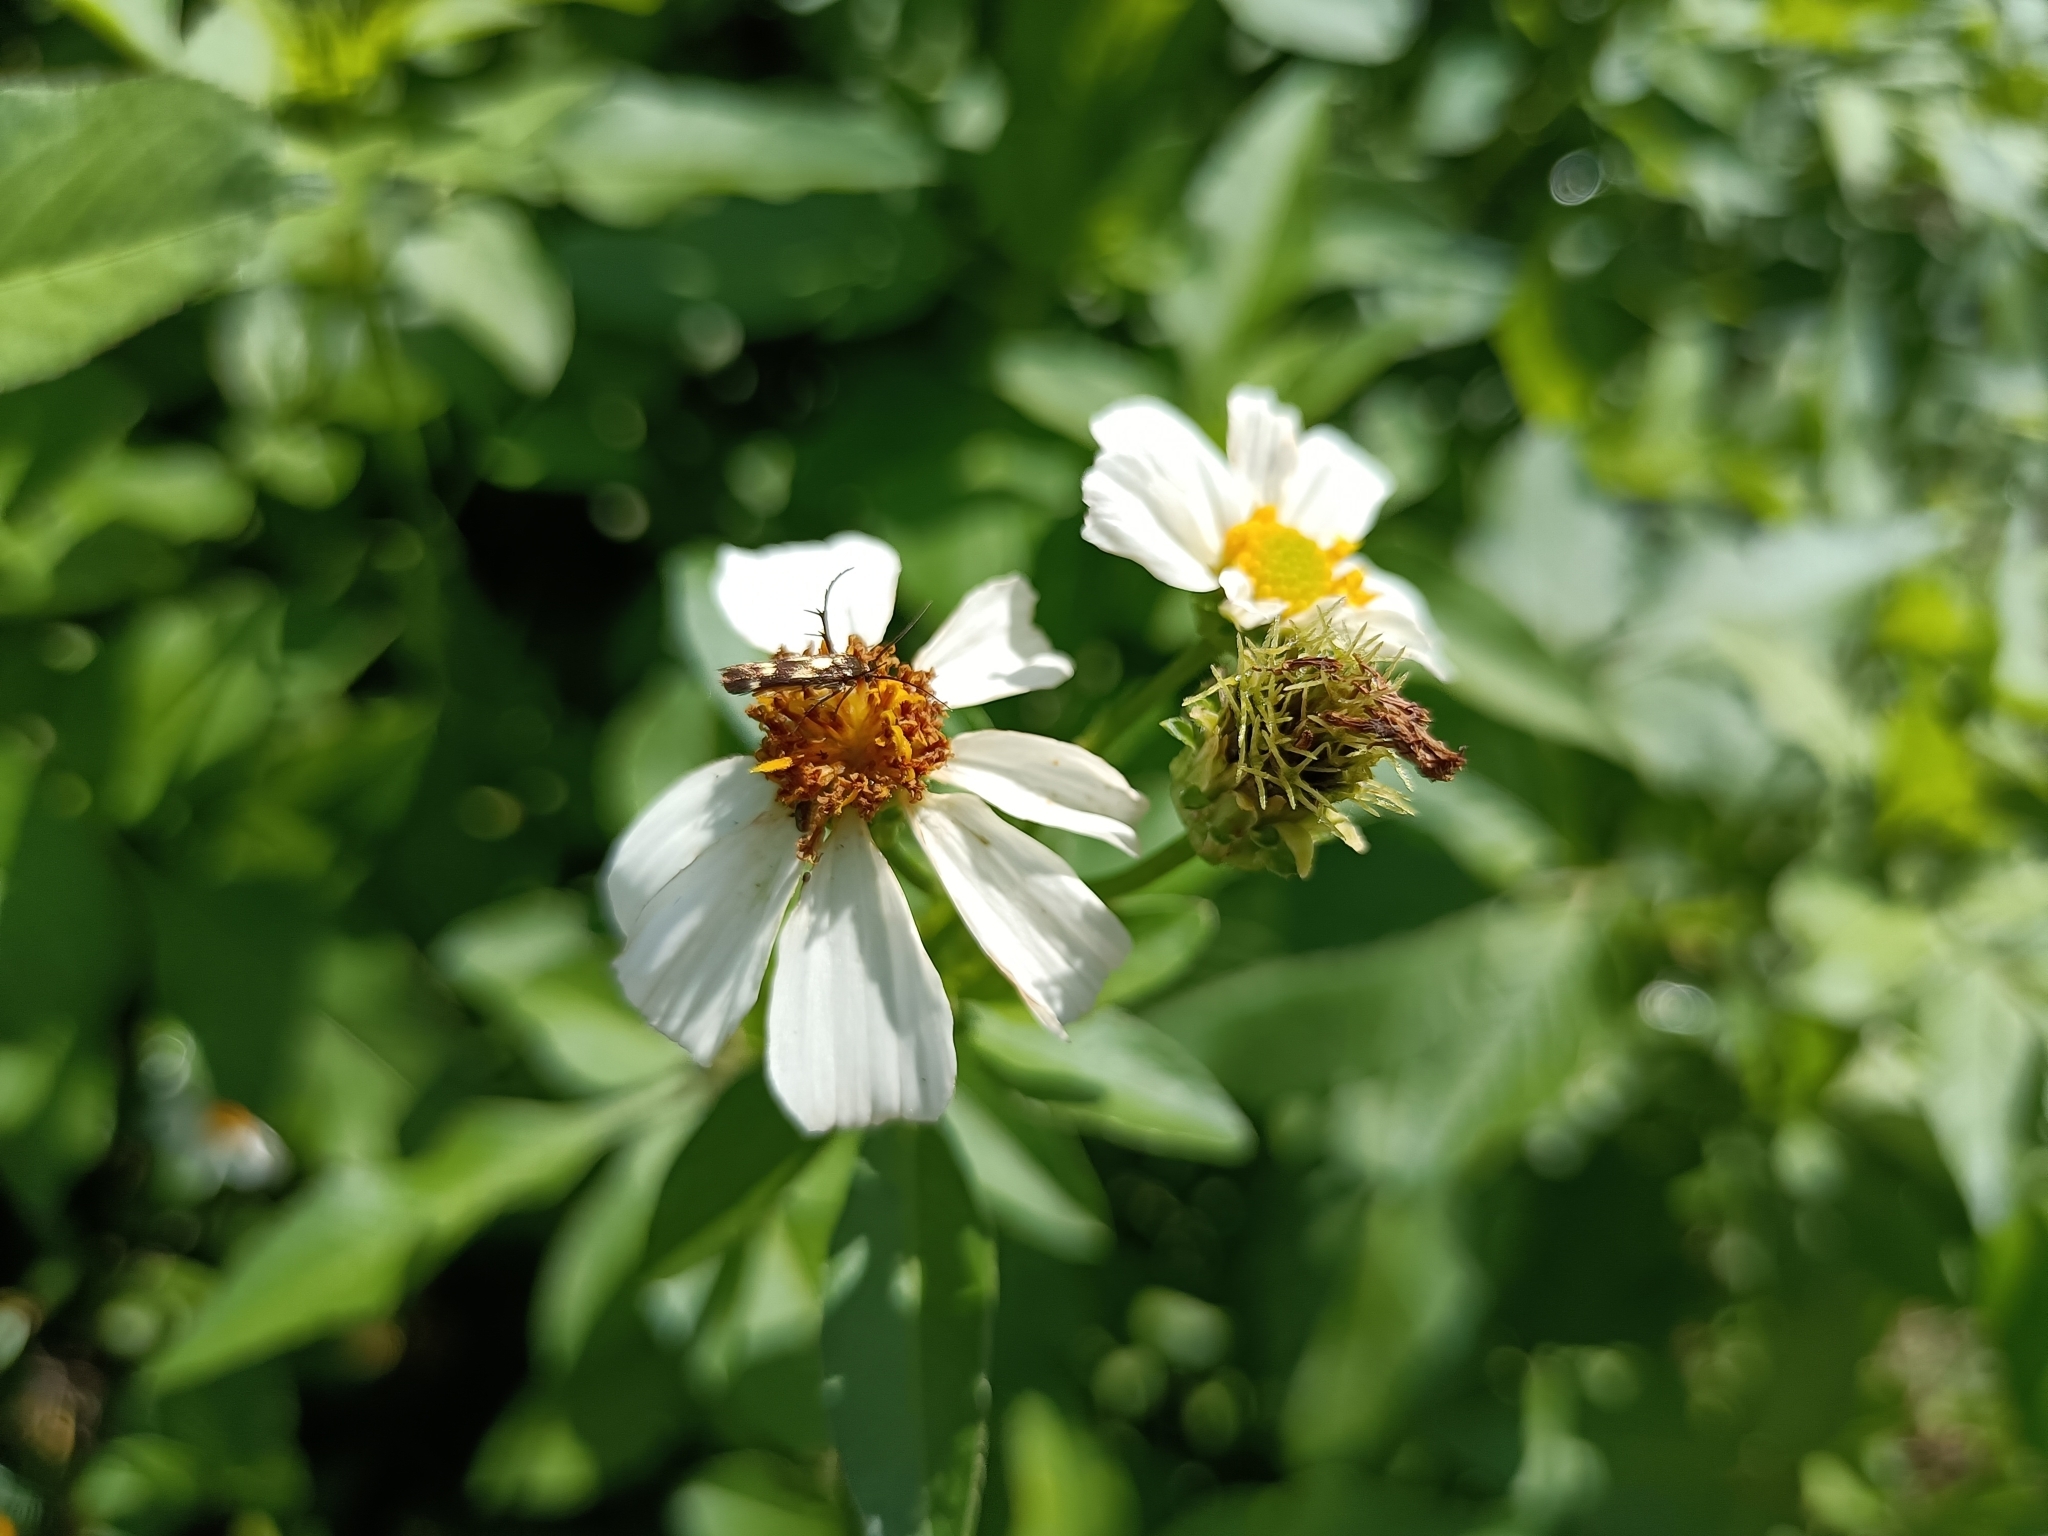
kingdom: Plantae
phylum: Tracheophyta
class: Magnoliopsida
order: Asterales
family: Asteraceae
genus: Bidens
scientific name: Bidens alba
